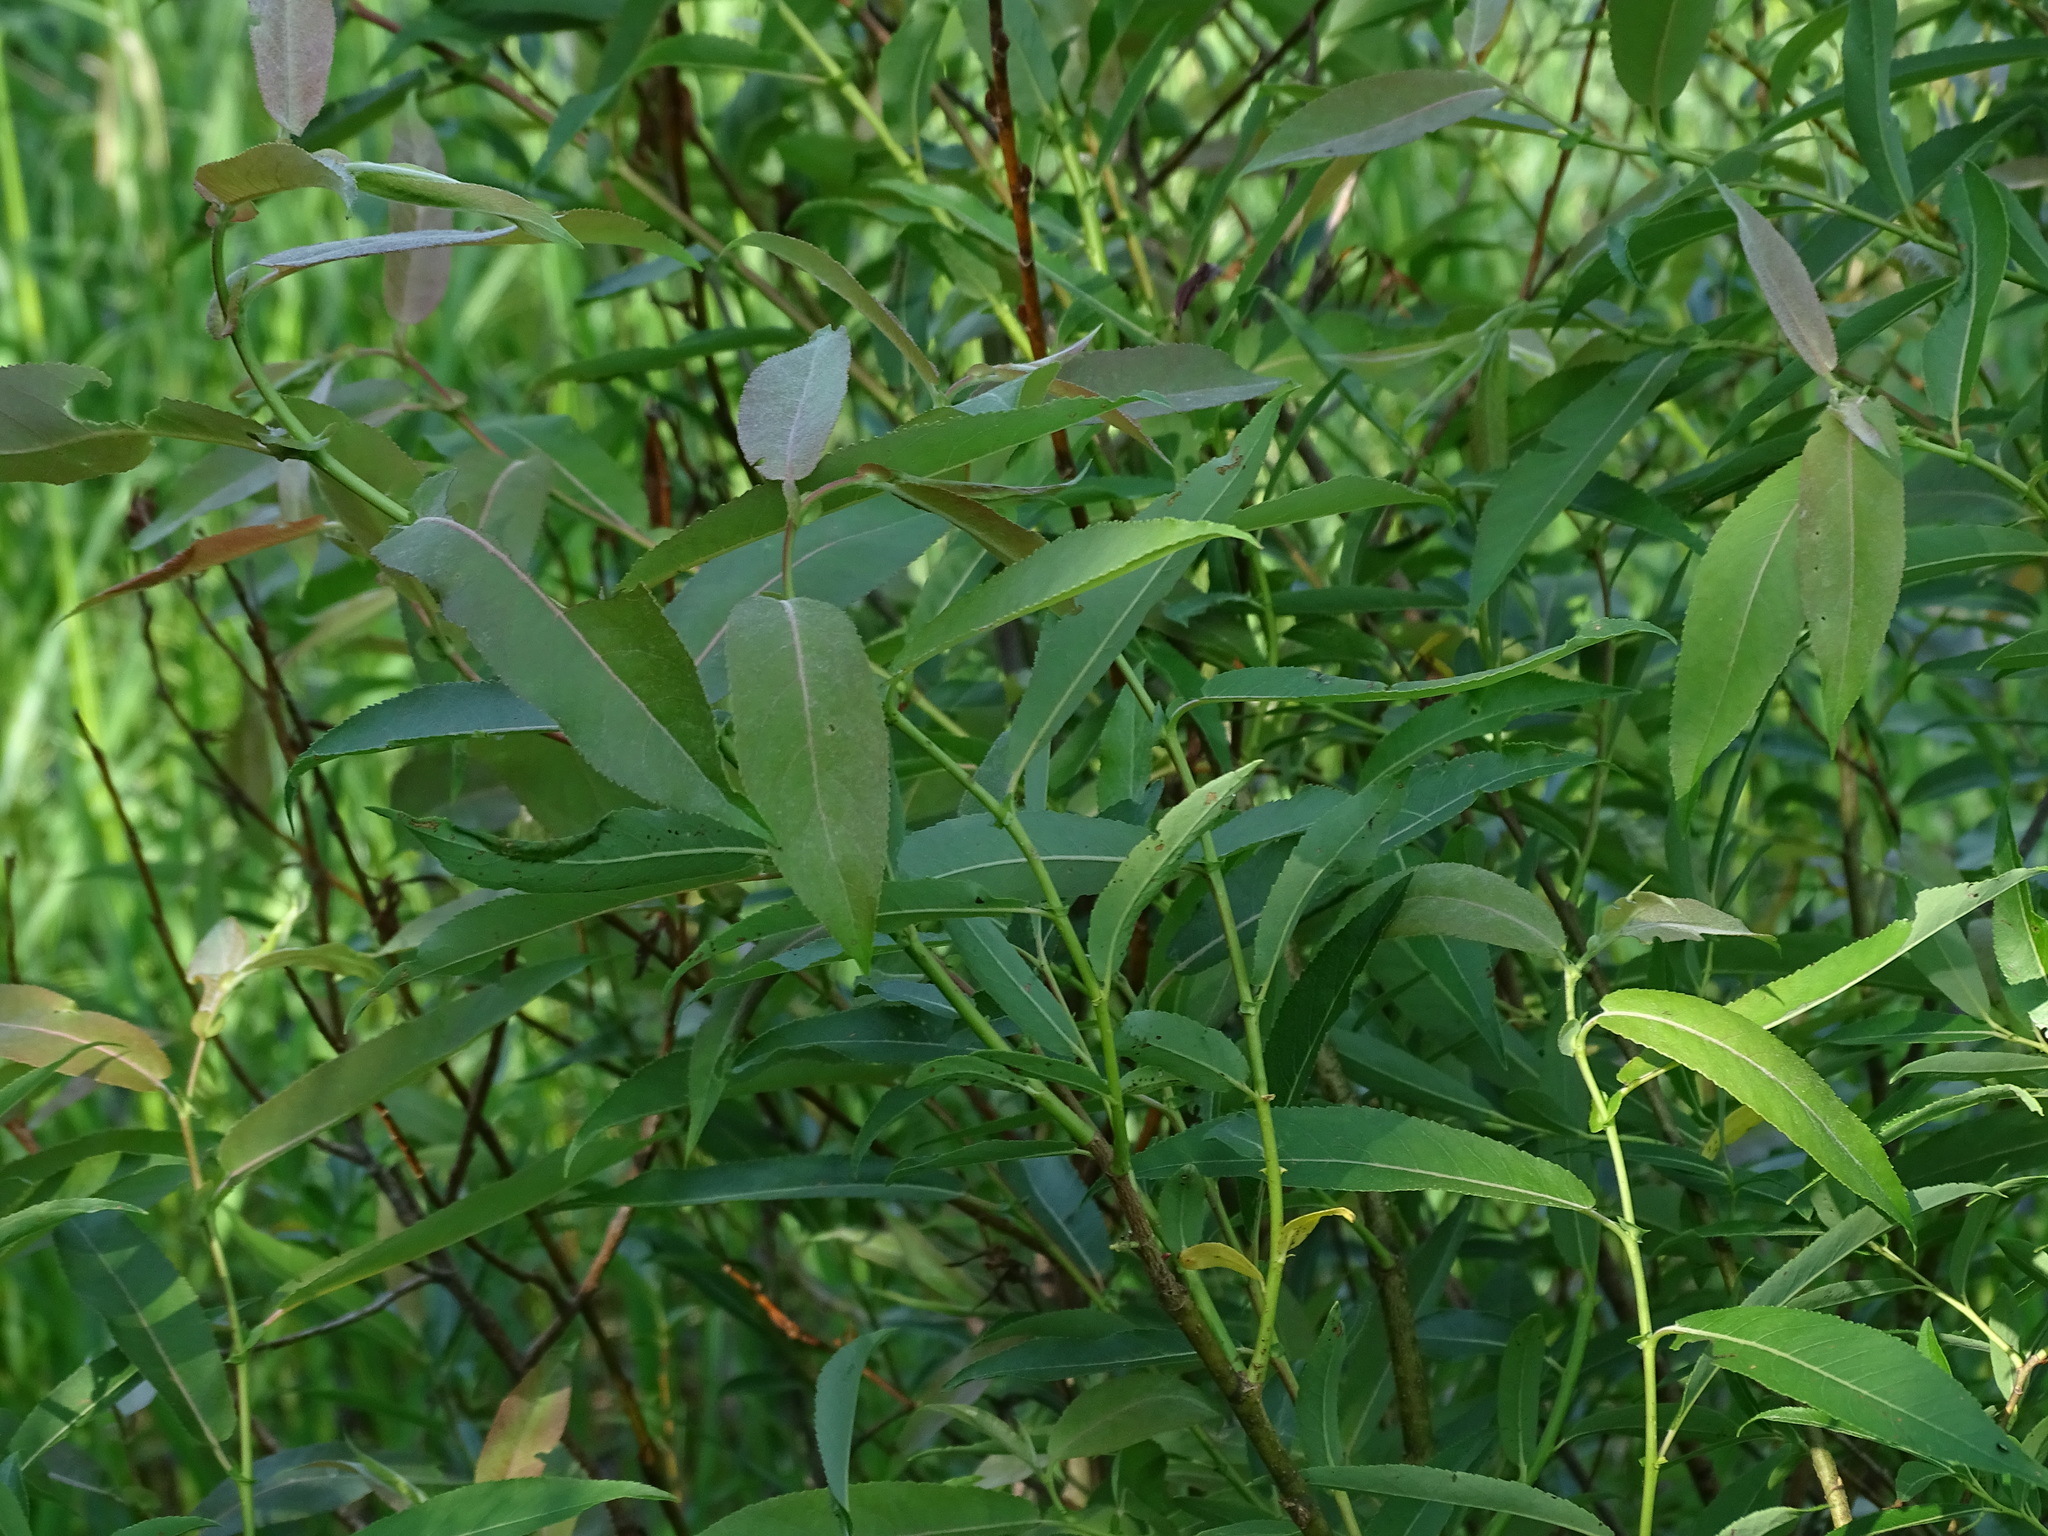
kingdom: Plantae
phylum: Tracheophyta
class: Magnoliopsida
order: Malpighiales
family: Salicaceae
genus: Salix
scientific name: Salix eriocephala
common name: Heart-leaved willow
